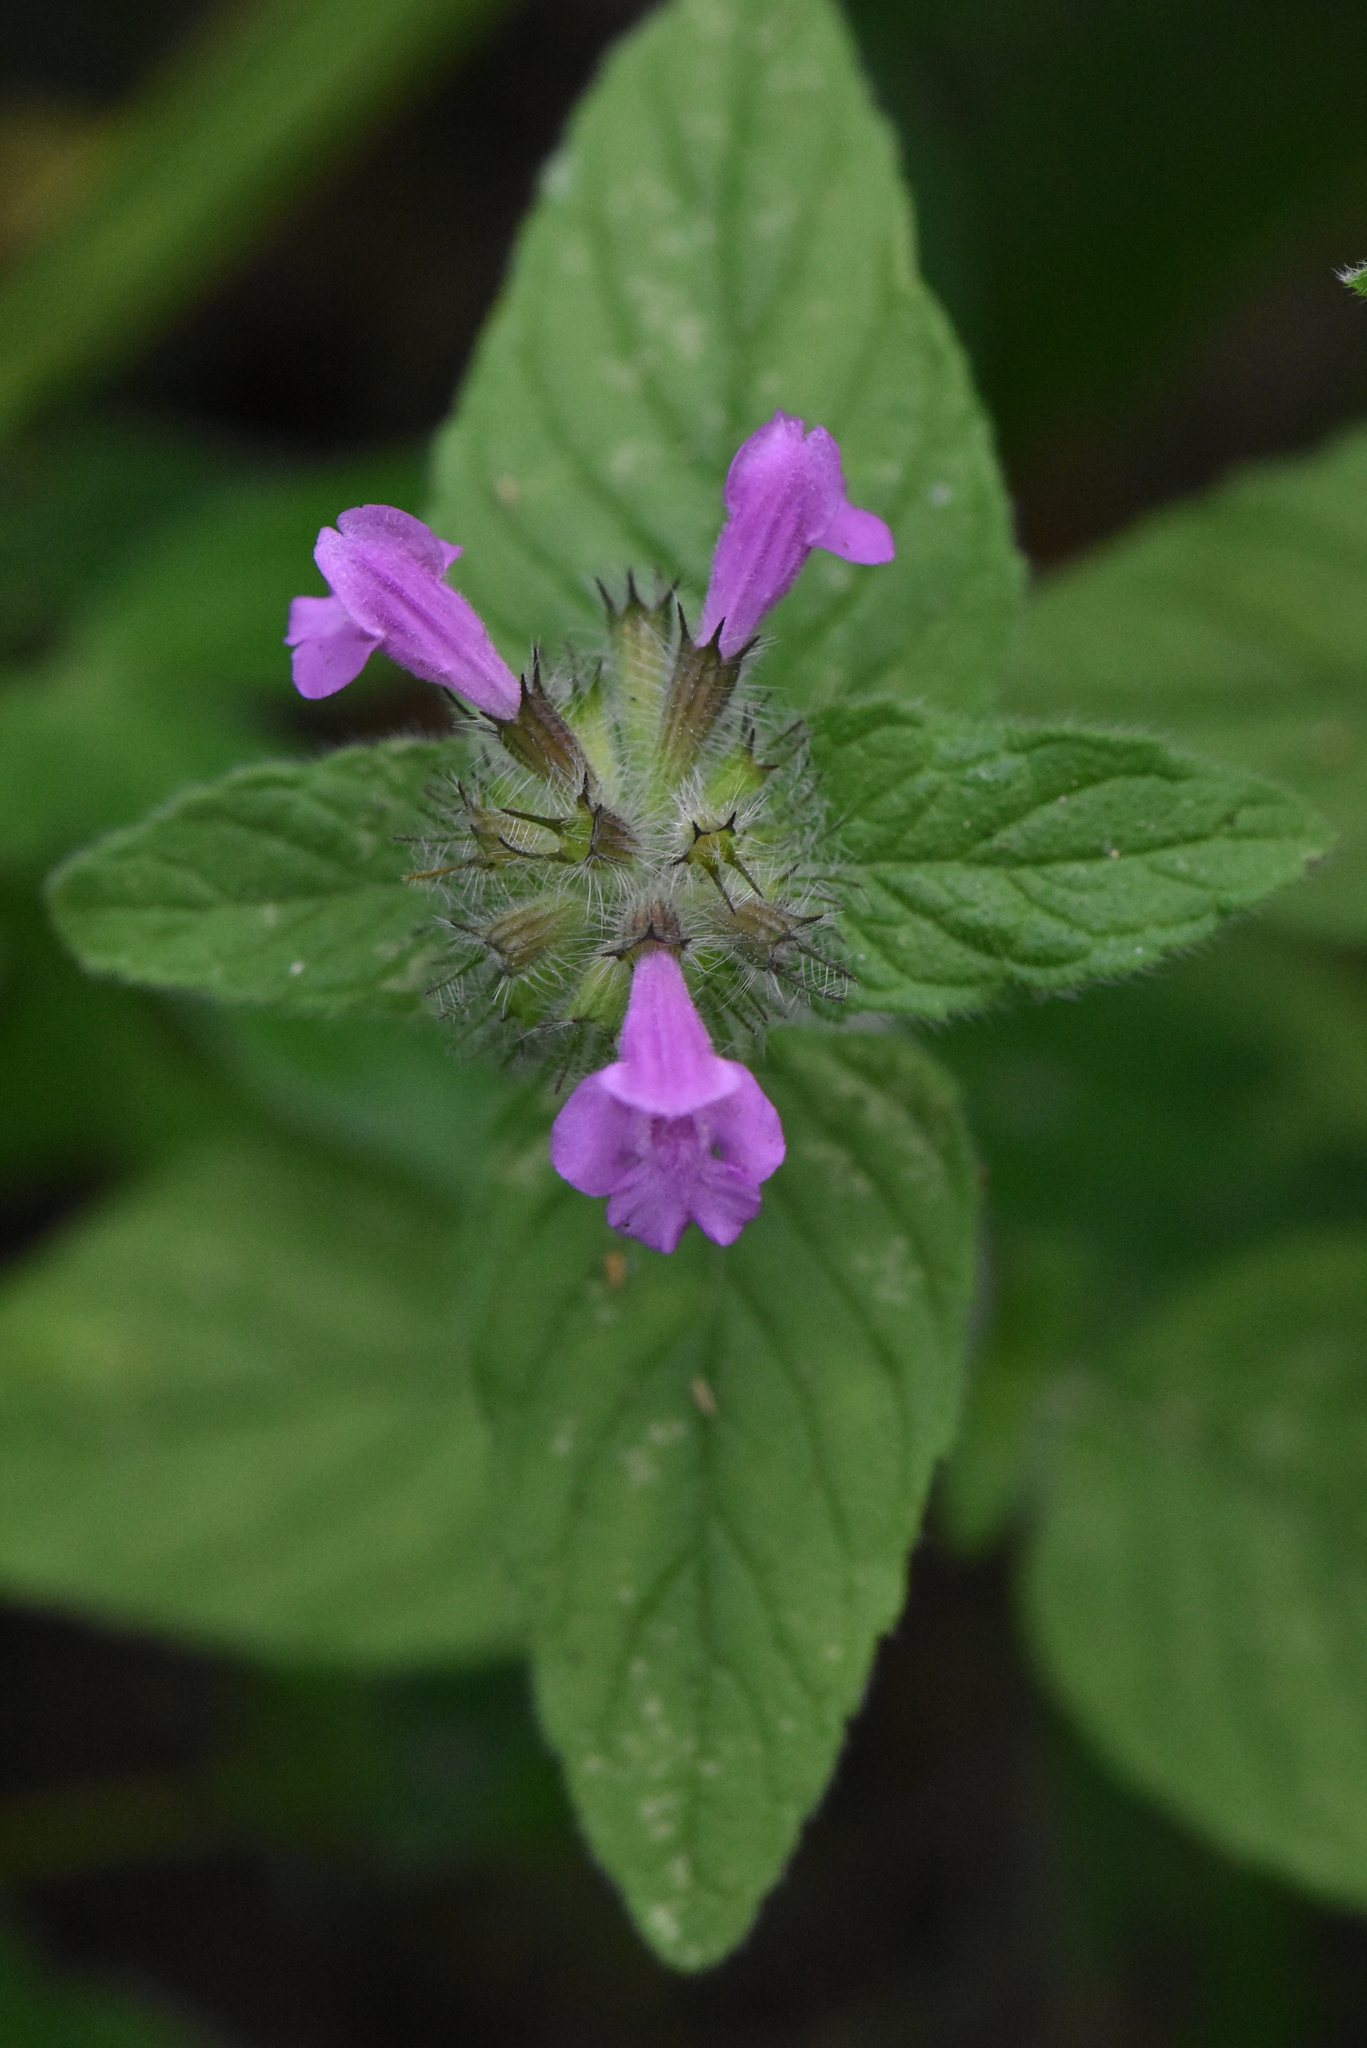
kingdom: Plantae
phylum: Tracheophyta
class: Magnoliopsida
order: Lamiales
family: Lamiaceae
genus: Clinopodium
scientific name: Clinopodium vulgare
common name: Wild basil
